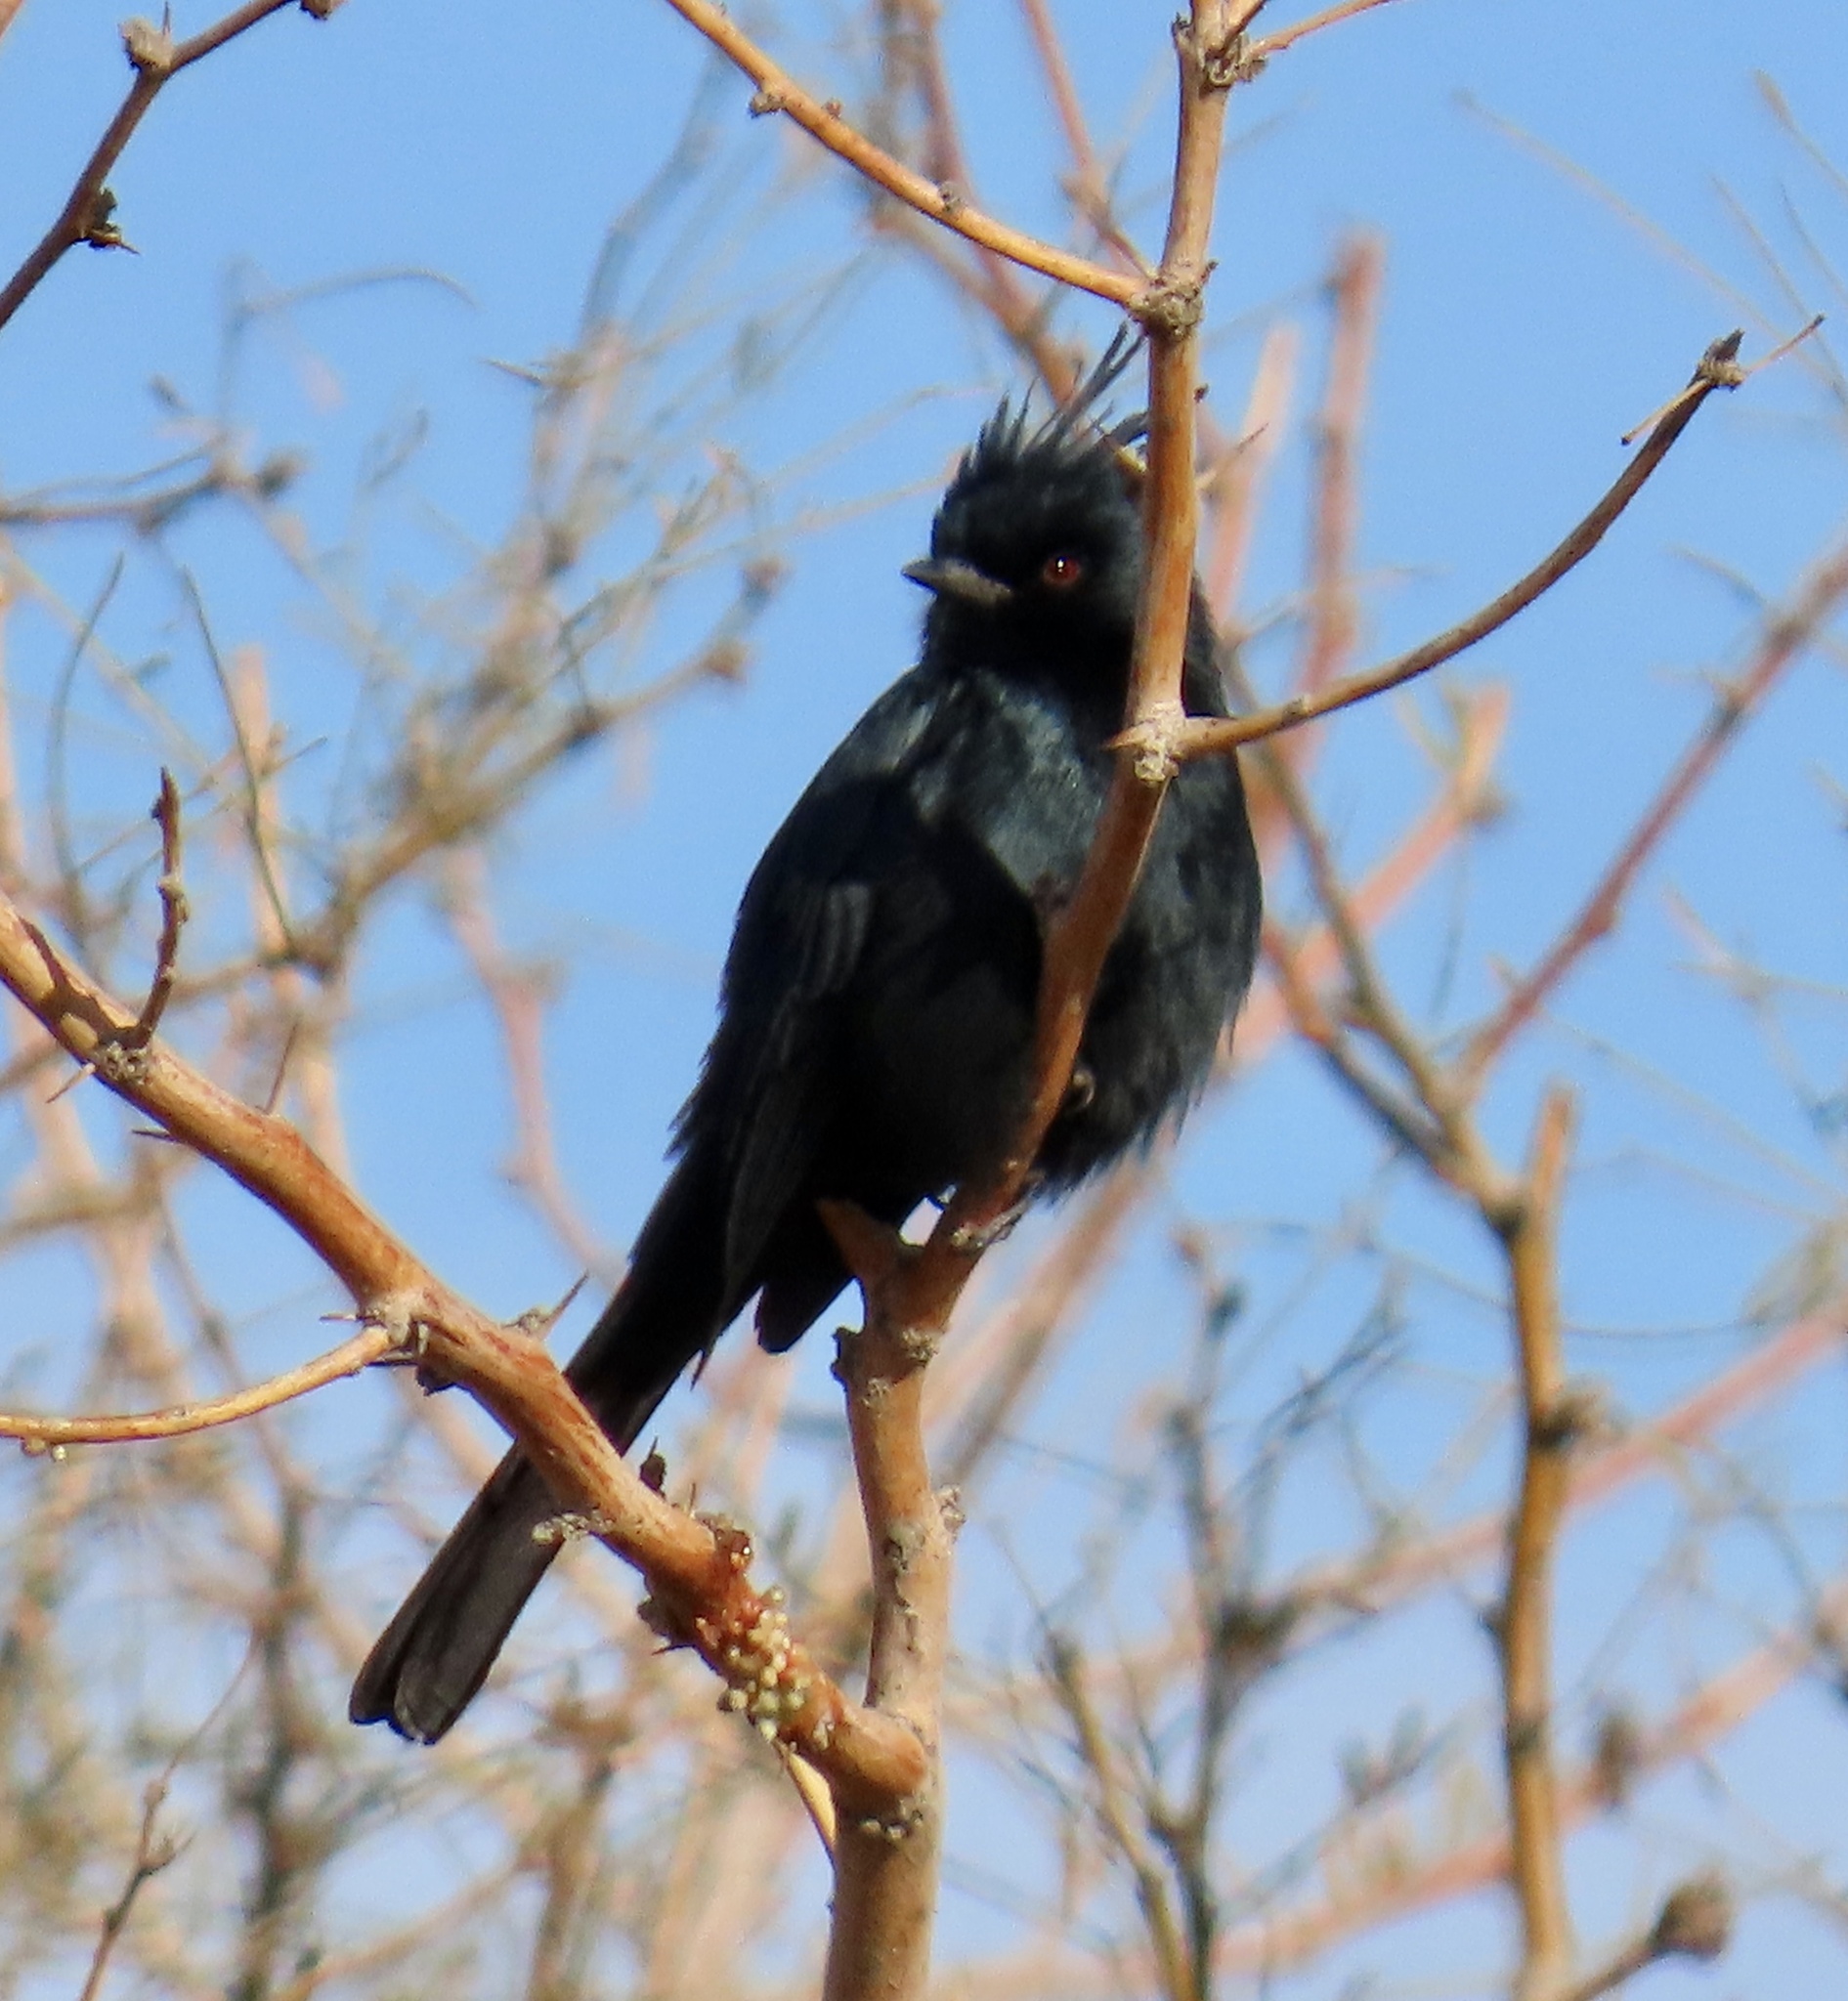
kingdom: Animalia
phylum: Chordata
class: Aves
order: Passeriformes
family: Ptilogonatidae
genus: Phainopepla
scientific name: Phainopepla nitens
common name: Phainopepla
